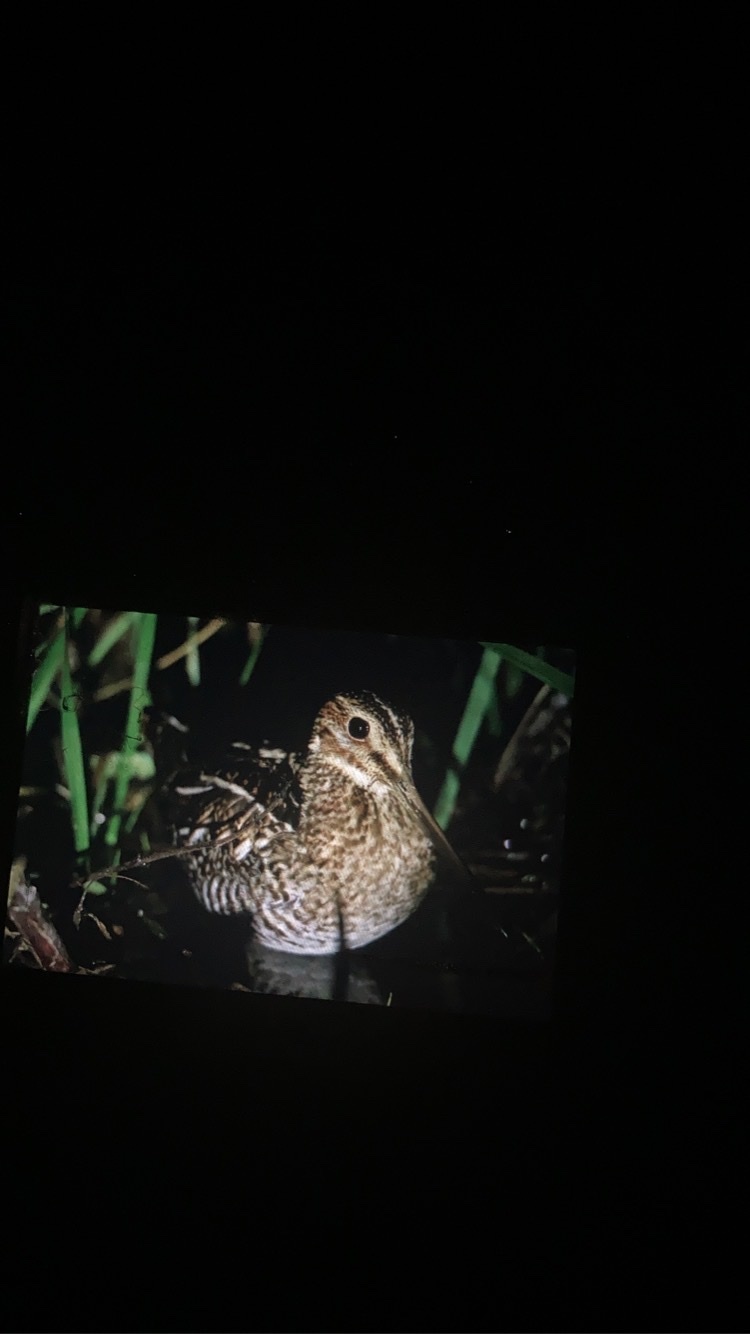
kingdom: Animalia
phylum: Chordata
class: Aves
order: Charadriiformes
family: Scolopacidae
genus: Gallinago
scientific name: Gallinago delicata
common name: Wilson's snipe
